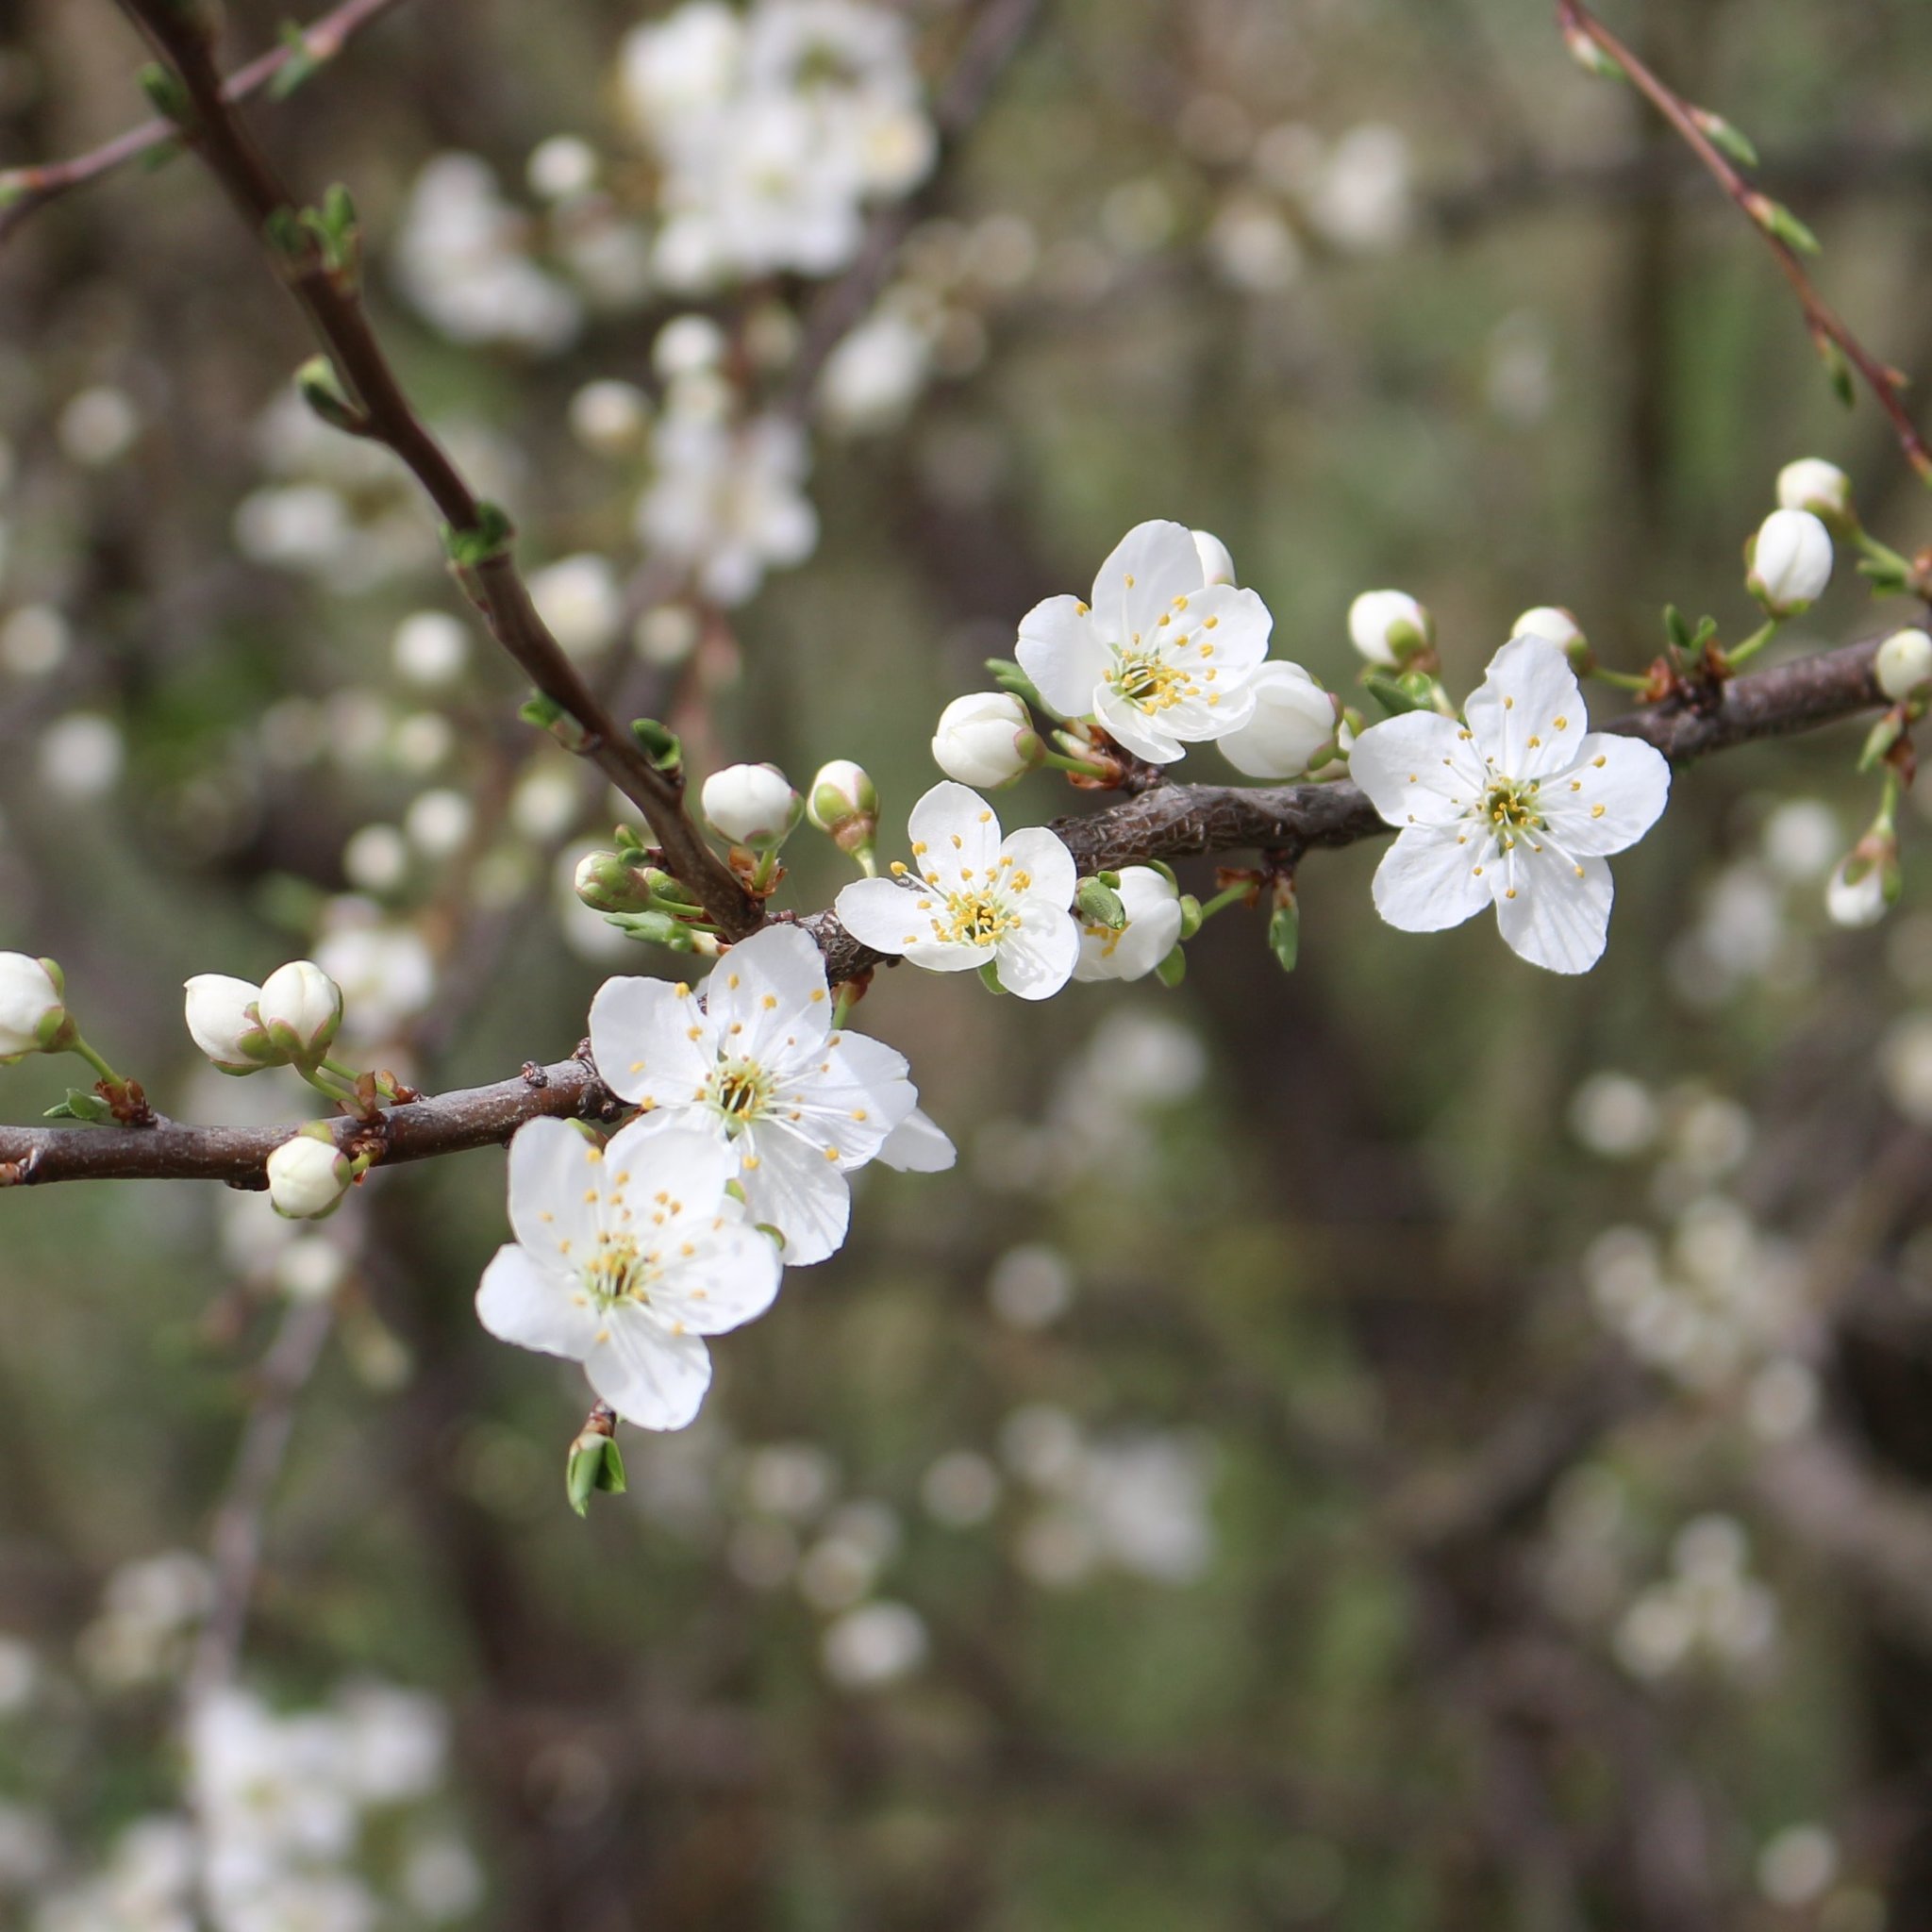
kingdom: Plantae
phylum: Tracheophyta
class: Magnoliopsida
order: Rosales
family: Rosaceae
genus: Prunus
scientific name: Prunus cerasifera
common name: Cherry plum
